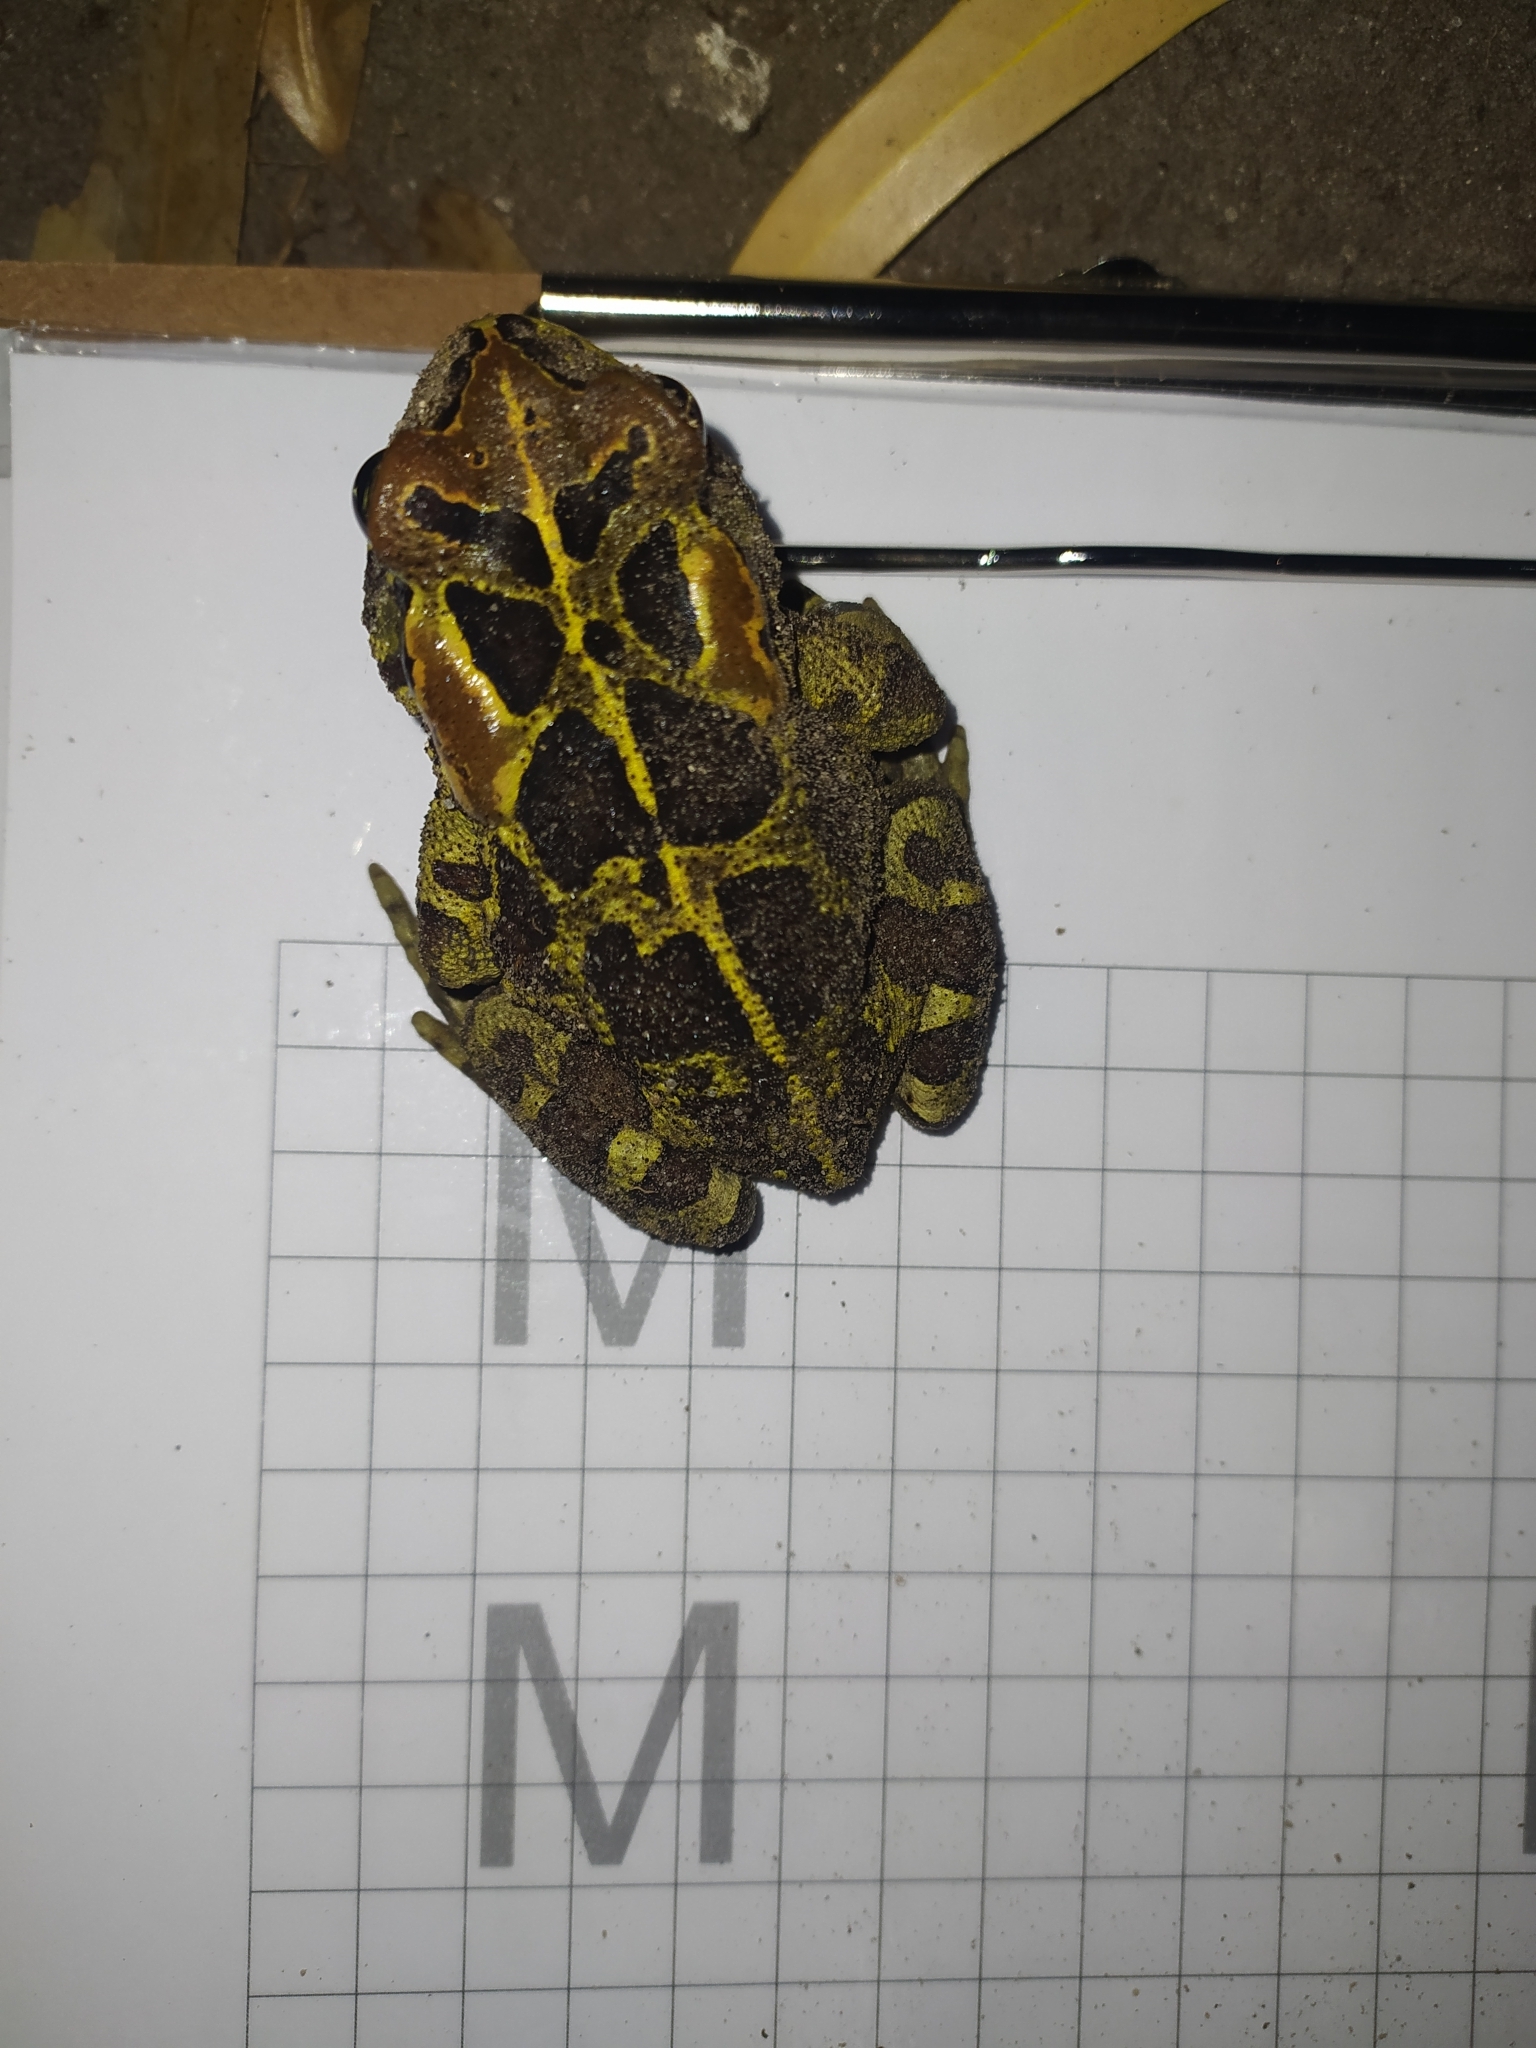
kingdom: Animalia
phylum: Chordata
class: Amphibia
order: Anura
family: Bufonidae
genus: Sclerophrys
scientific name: Sclerophrys pantherina
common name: Panther toad
